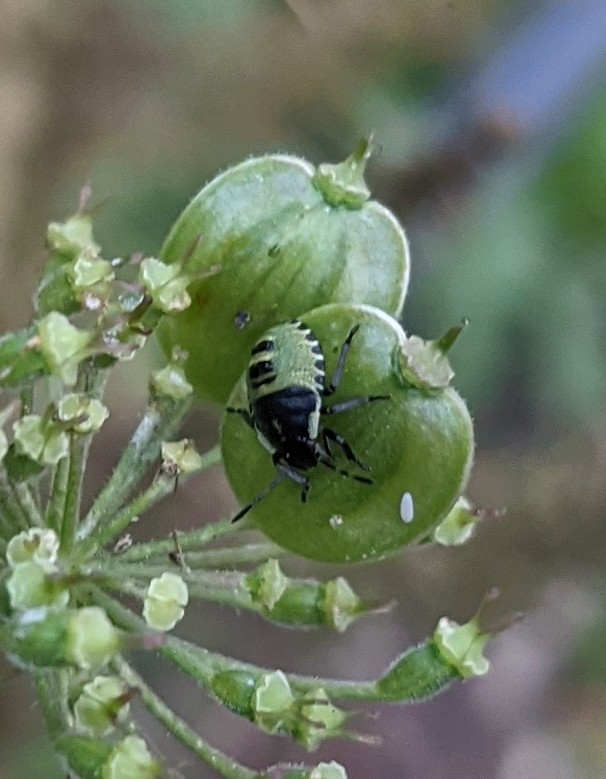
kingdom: Animalia
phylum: Arthropoda
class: Insecta
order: Hemiptera
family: Pentatomidae
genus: Palomena
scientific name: Palomena prasina
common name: Green shieldbug
